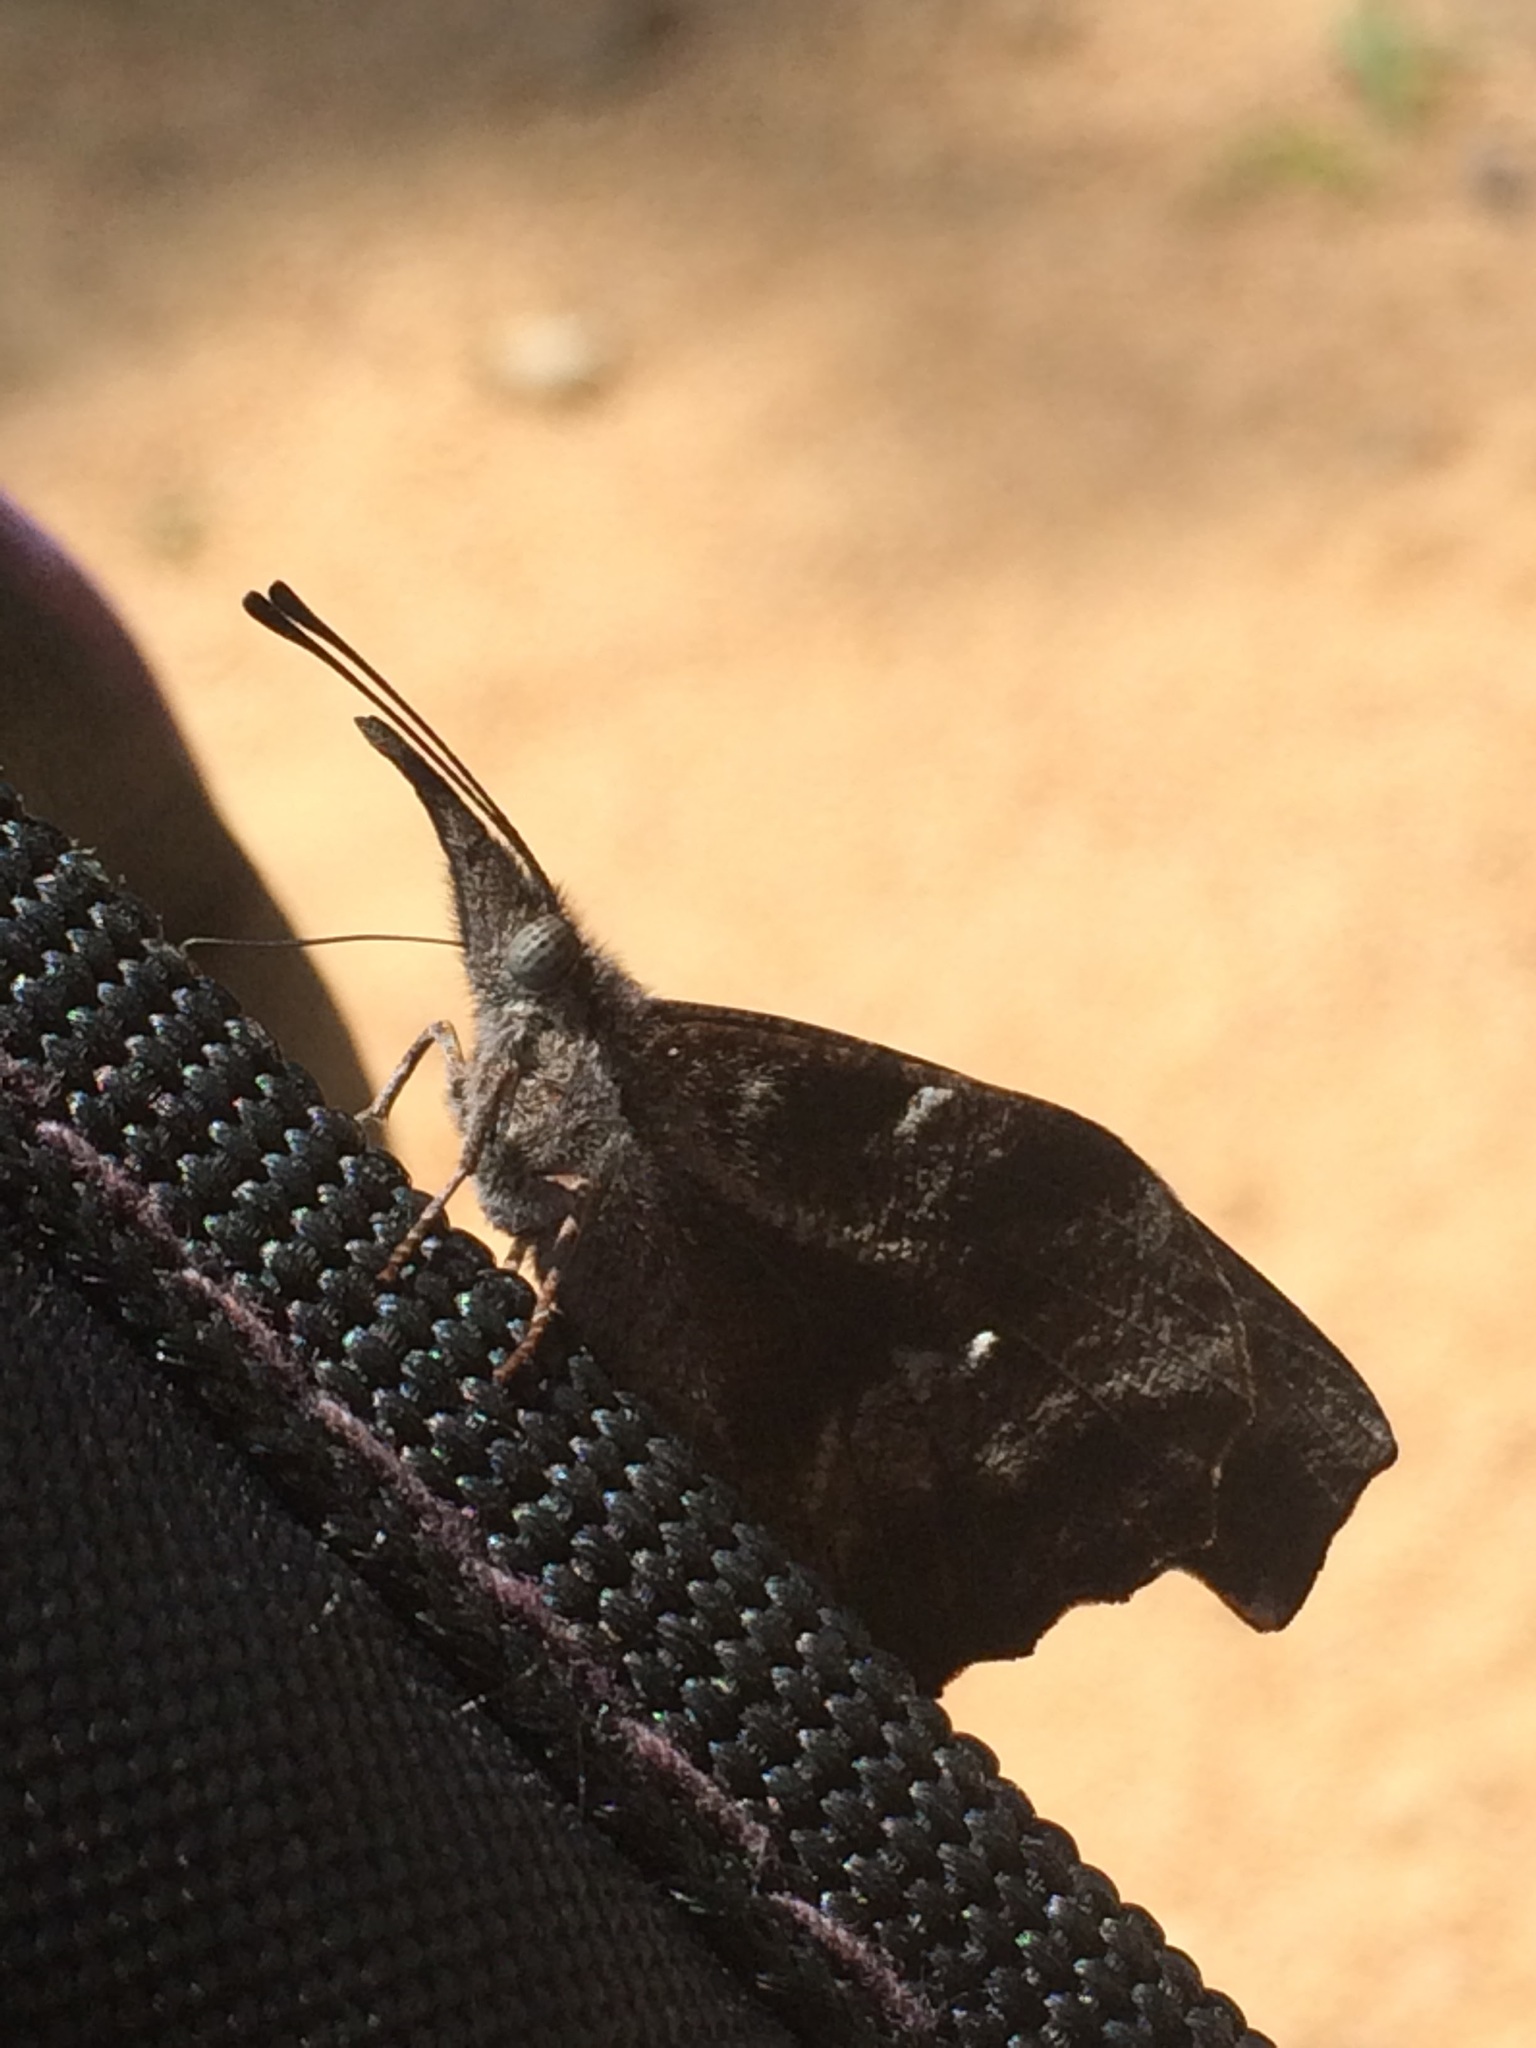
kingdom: Animalia
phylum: Arthropoda
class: Insecta
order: Lepidoptera
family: Nymphalidae
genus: Libytheana
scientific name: Libytheana carinenta
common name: American snout
